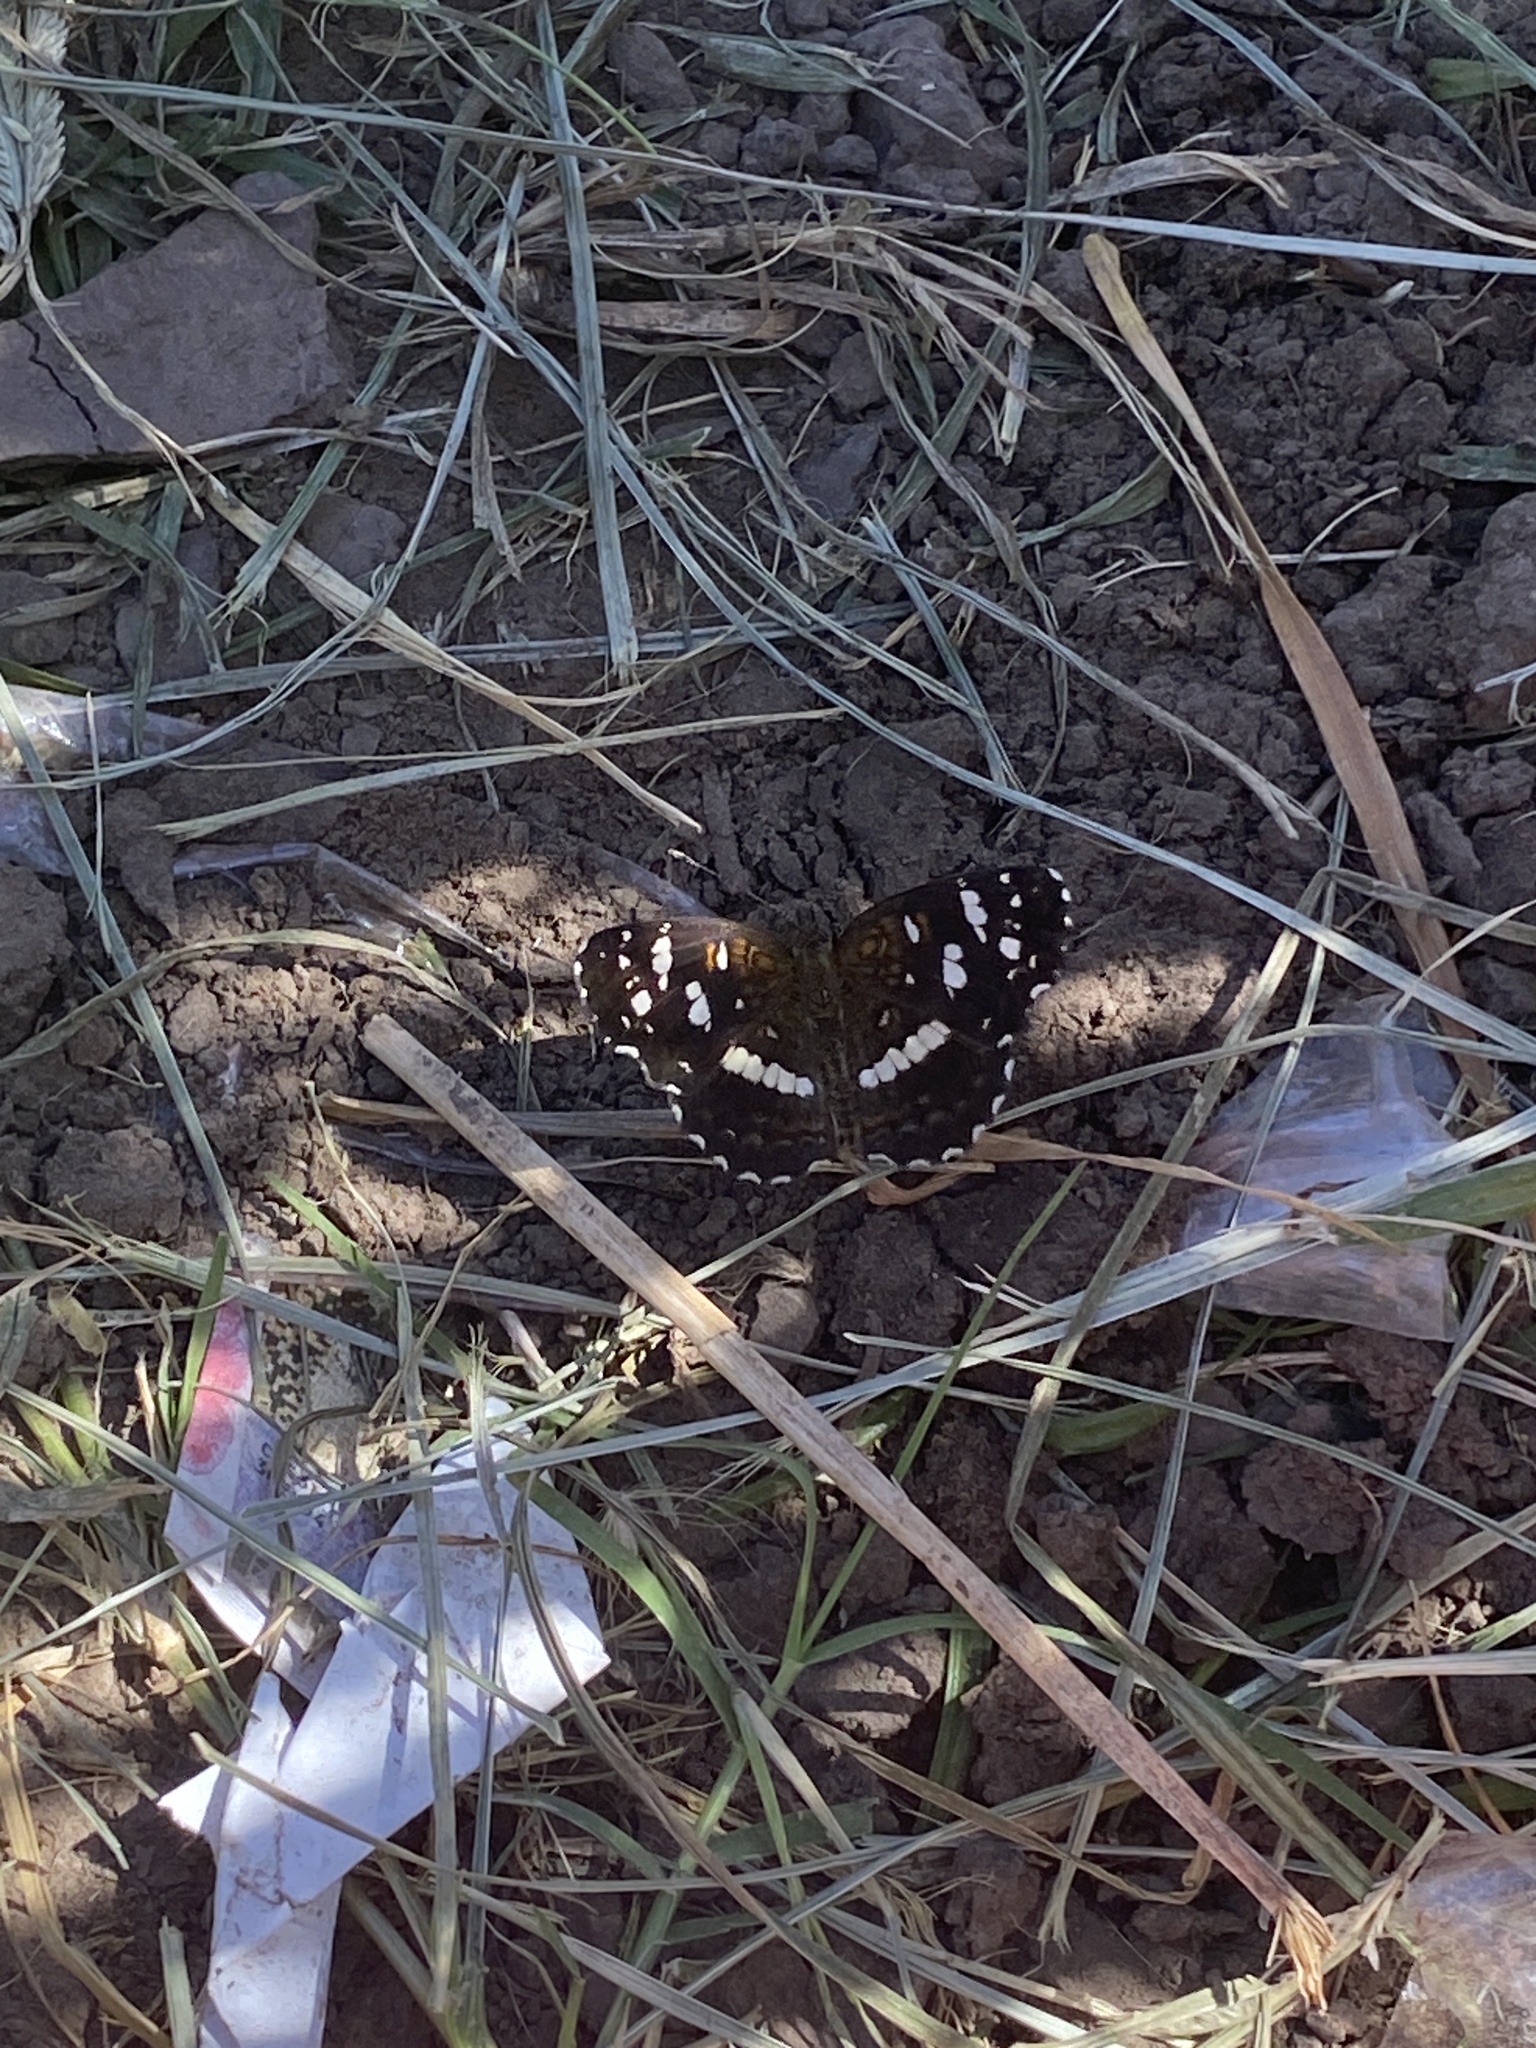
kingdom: Animalia
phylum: Arthropoda
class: Insecta
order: Lepidoptera
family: Nymphalidae
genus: Ortilia
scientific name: Ortilia ithra
